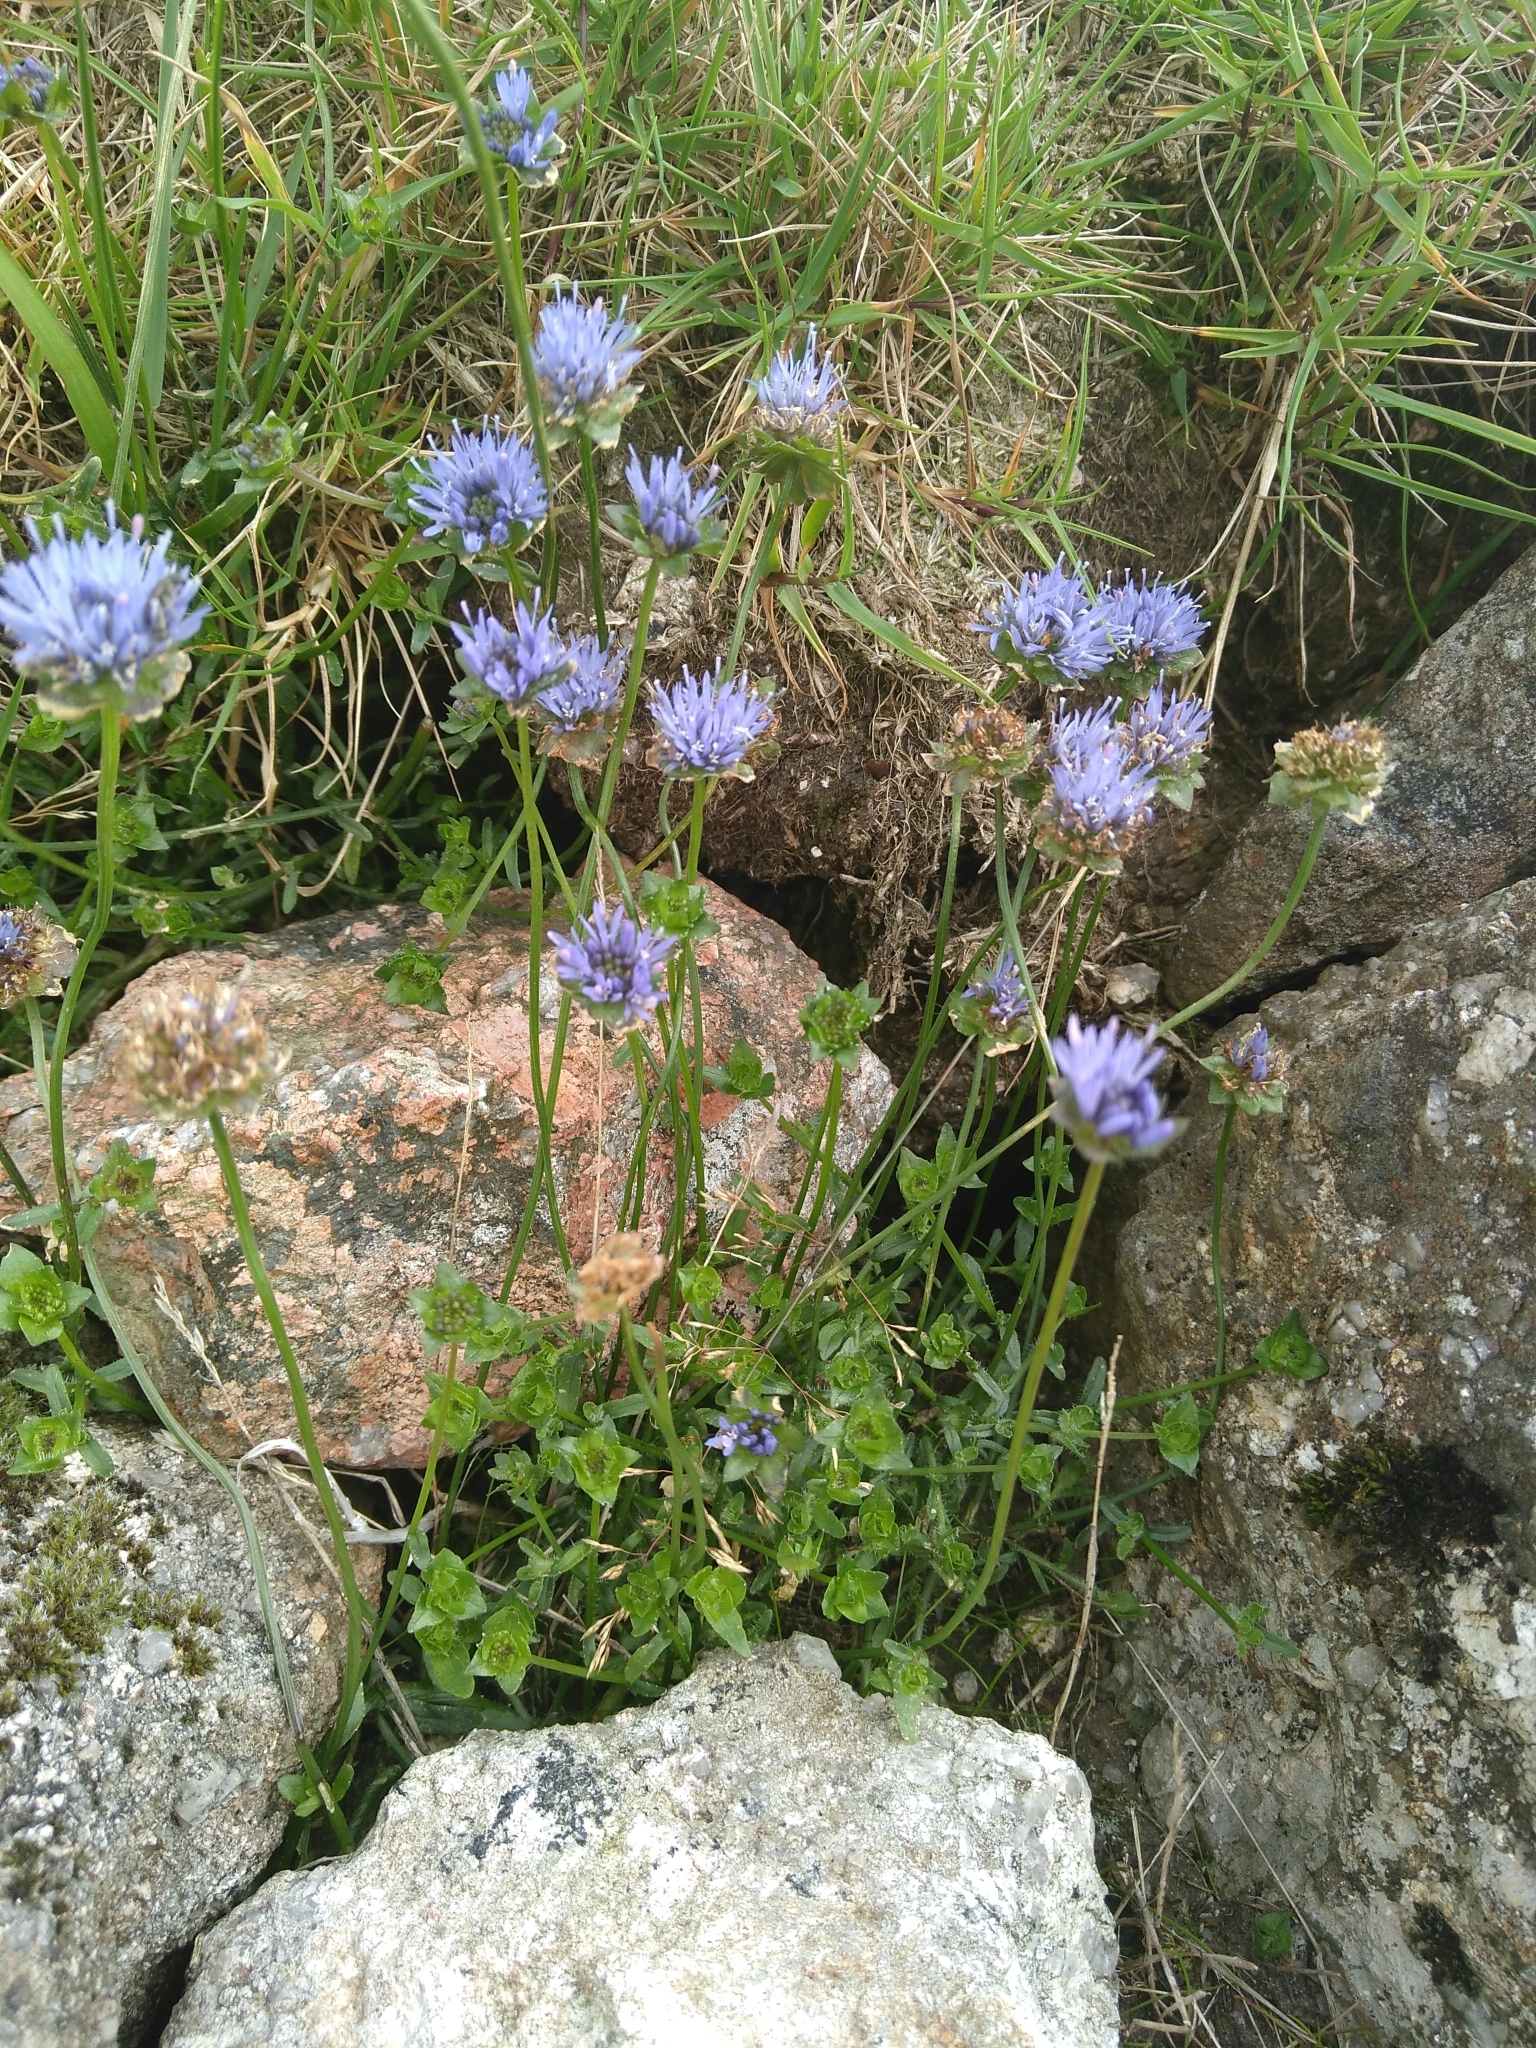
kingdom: Plantae
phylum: Tracheophyta
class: Magnoliopsida
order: Asterales
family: Campanulaceae
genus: Jasione
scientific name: Jasione montana
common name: Sheep's-bit
